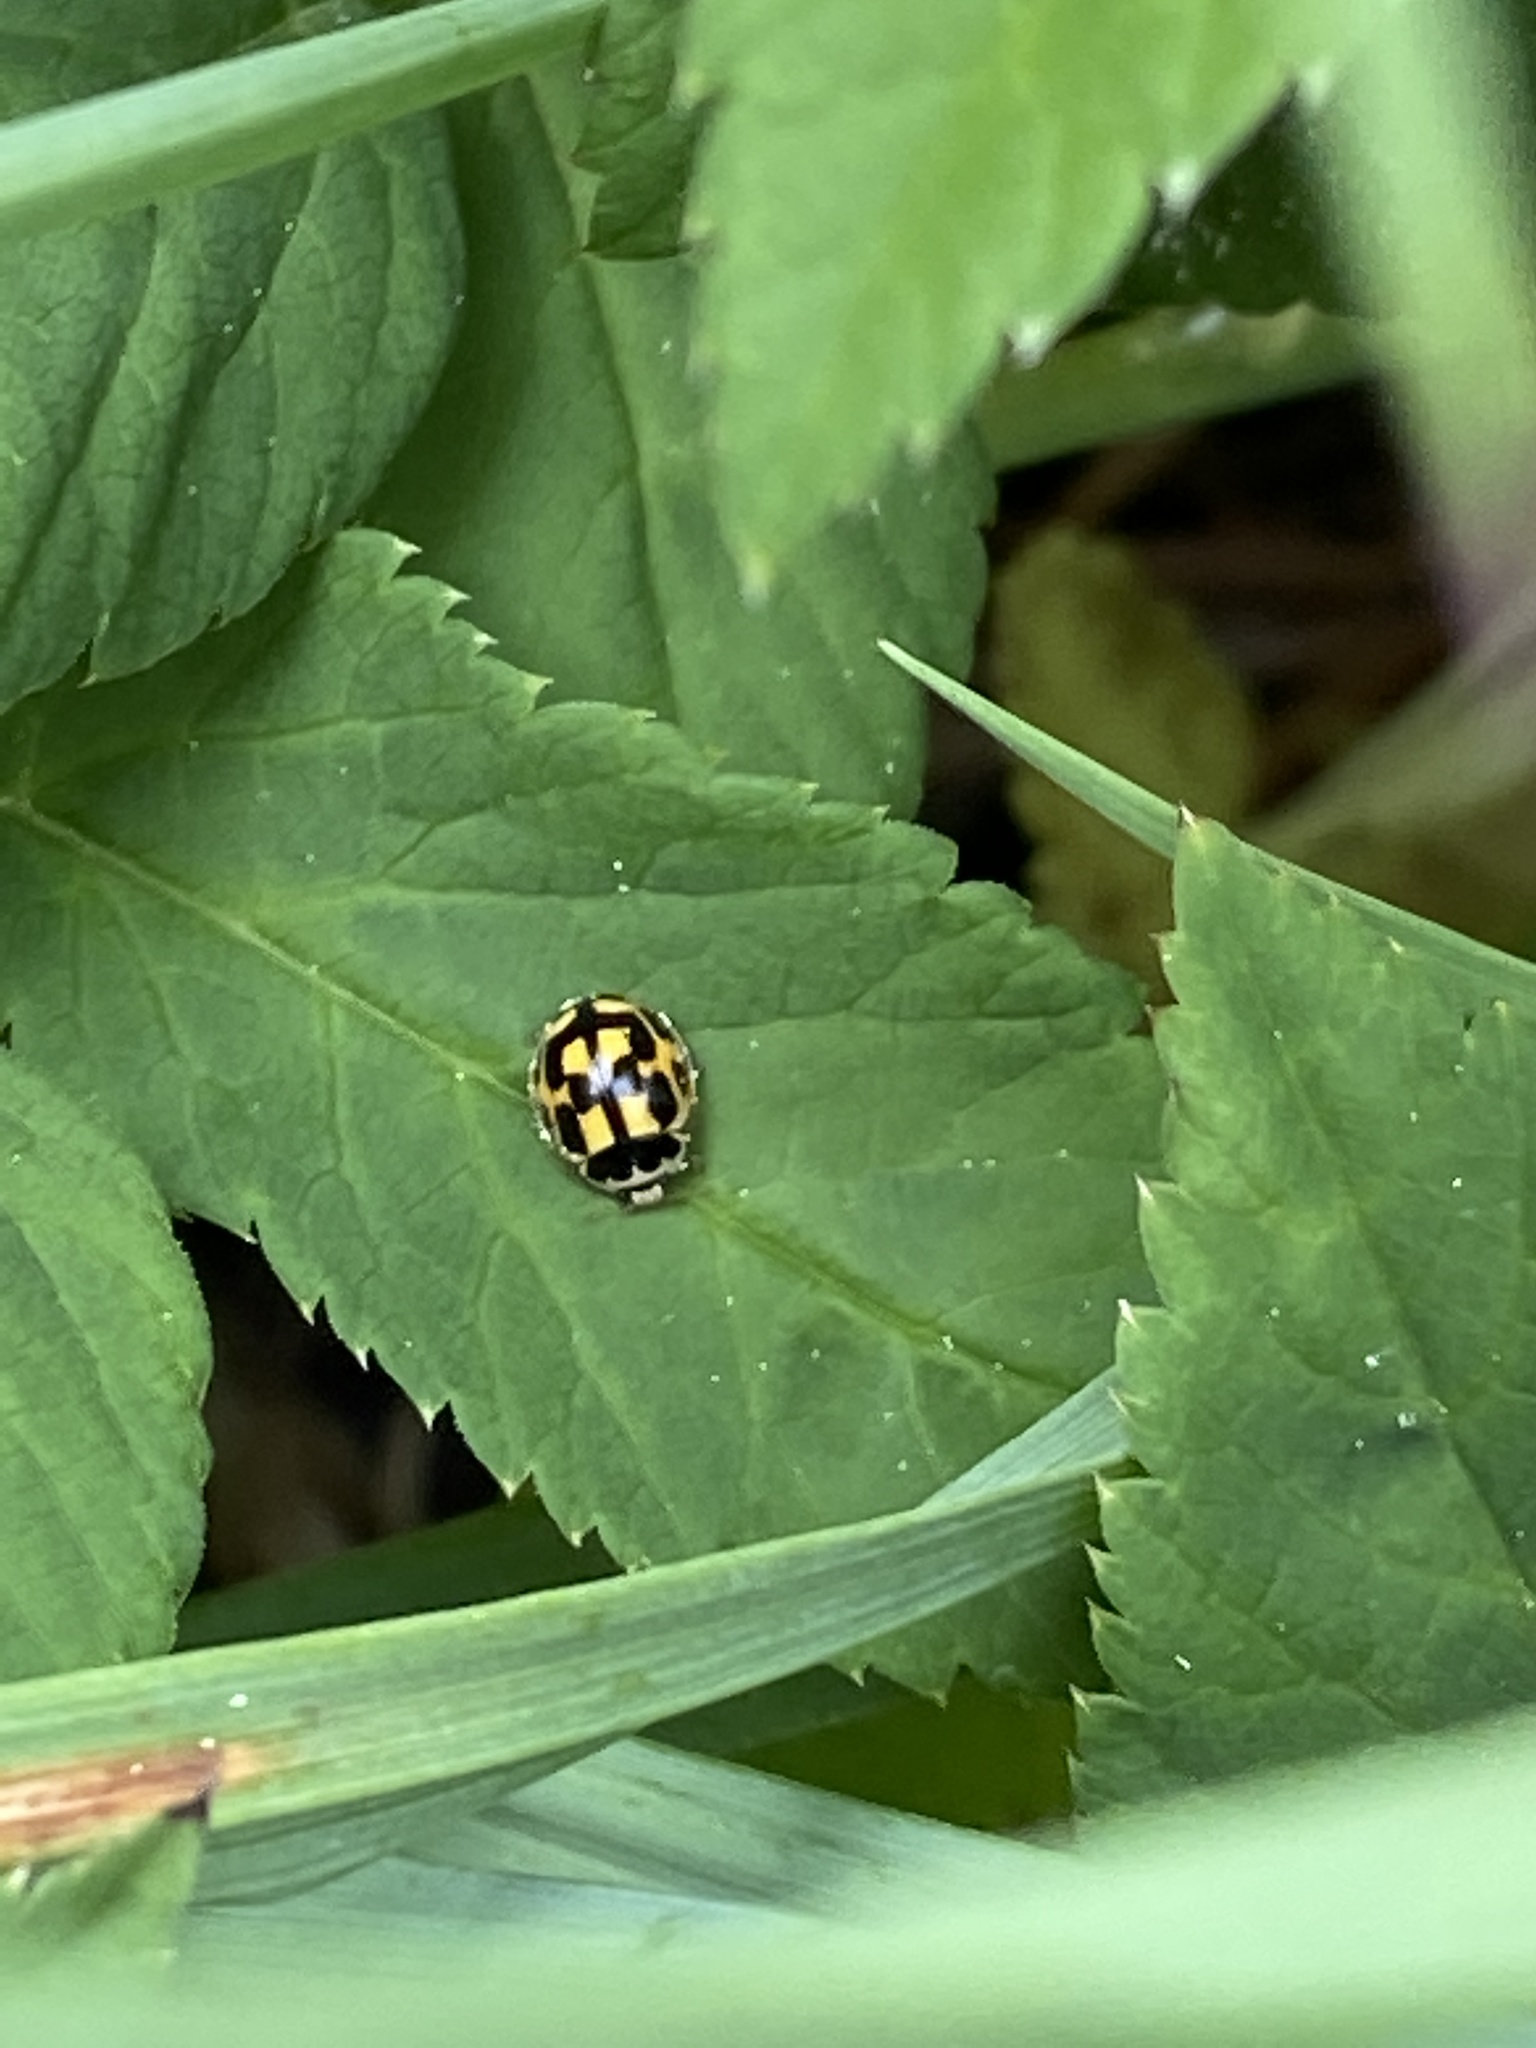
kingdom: Animalia
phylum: Arthropoda
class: Insecta
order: Coleoptera
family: Coccinellidae
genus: Propylaea
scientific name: Propylaea quatuordecimpunctata
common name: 14-spotted ladybird beetle
